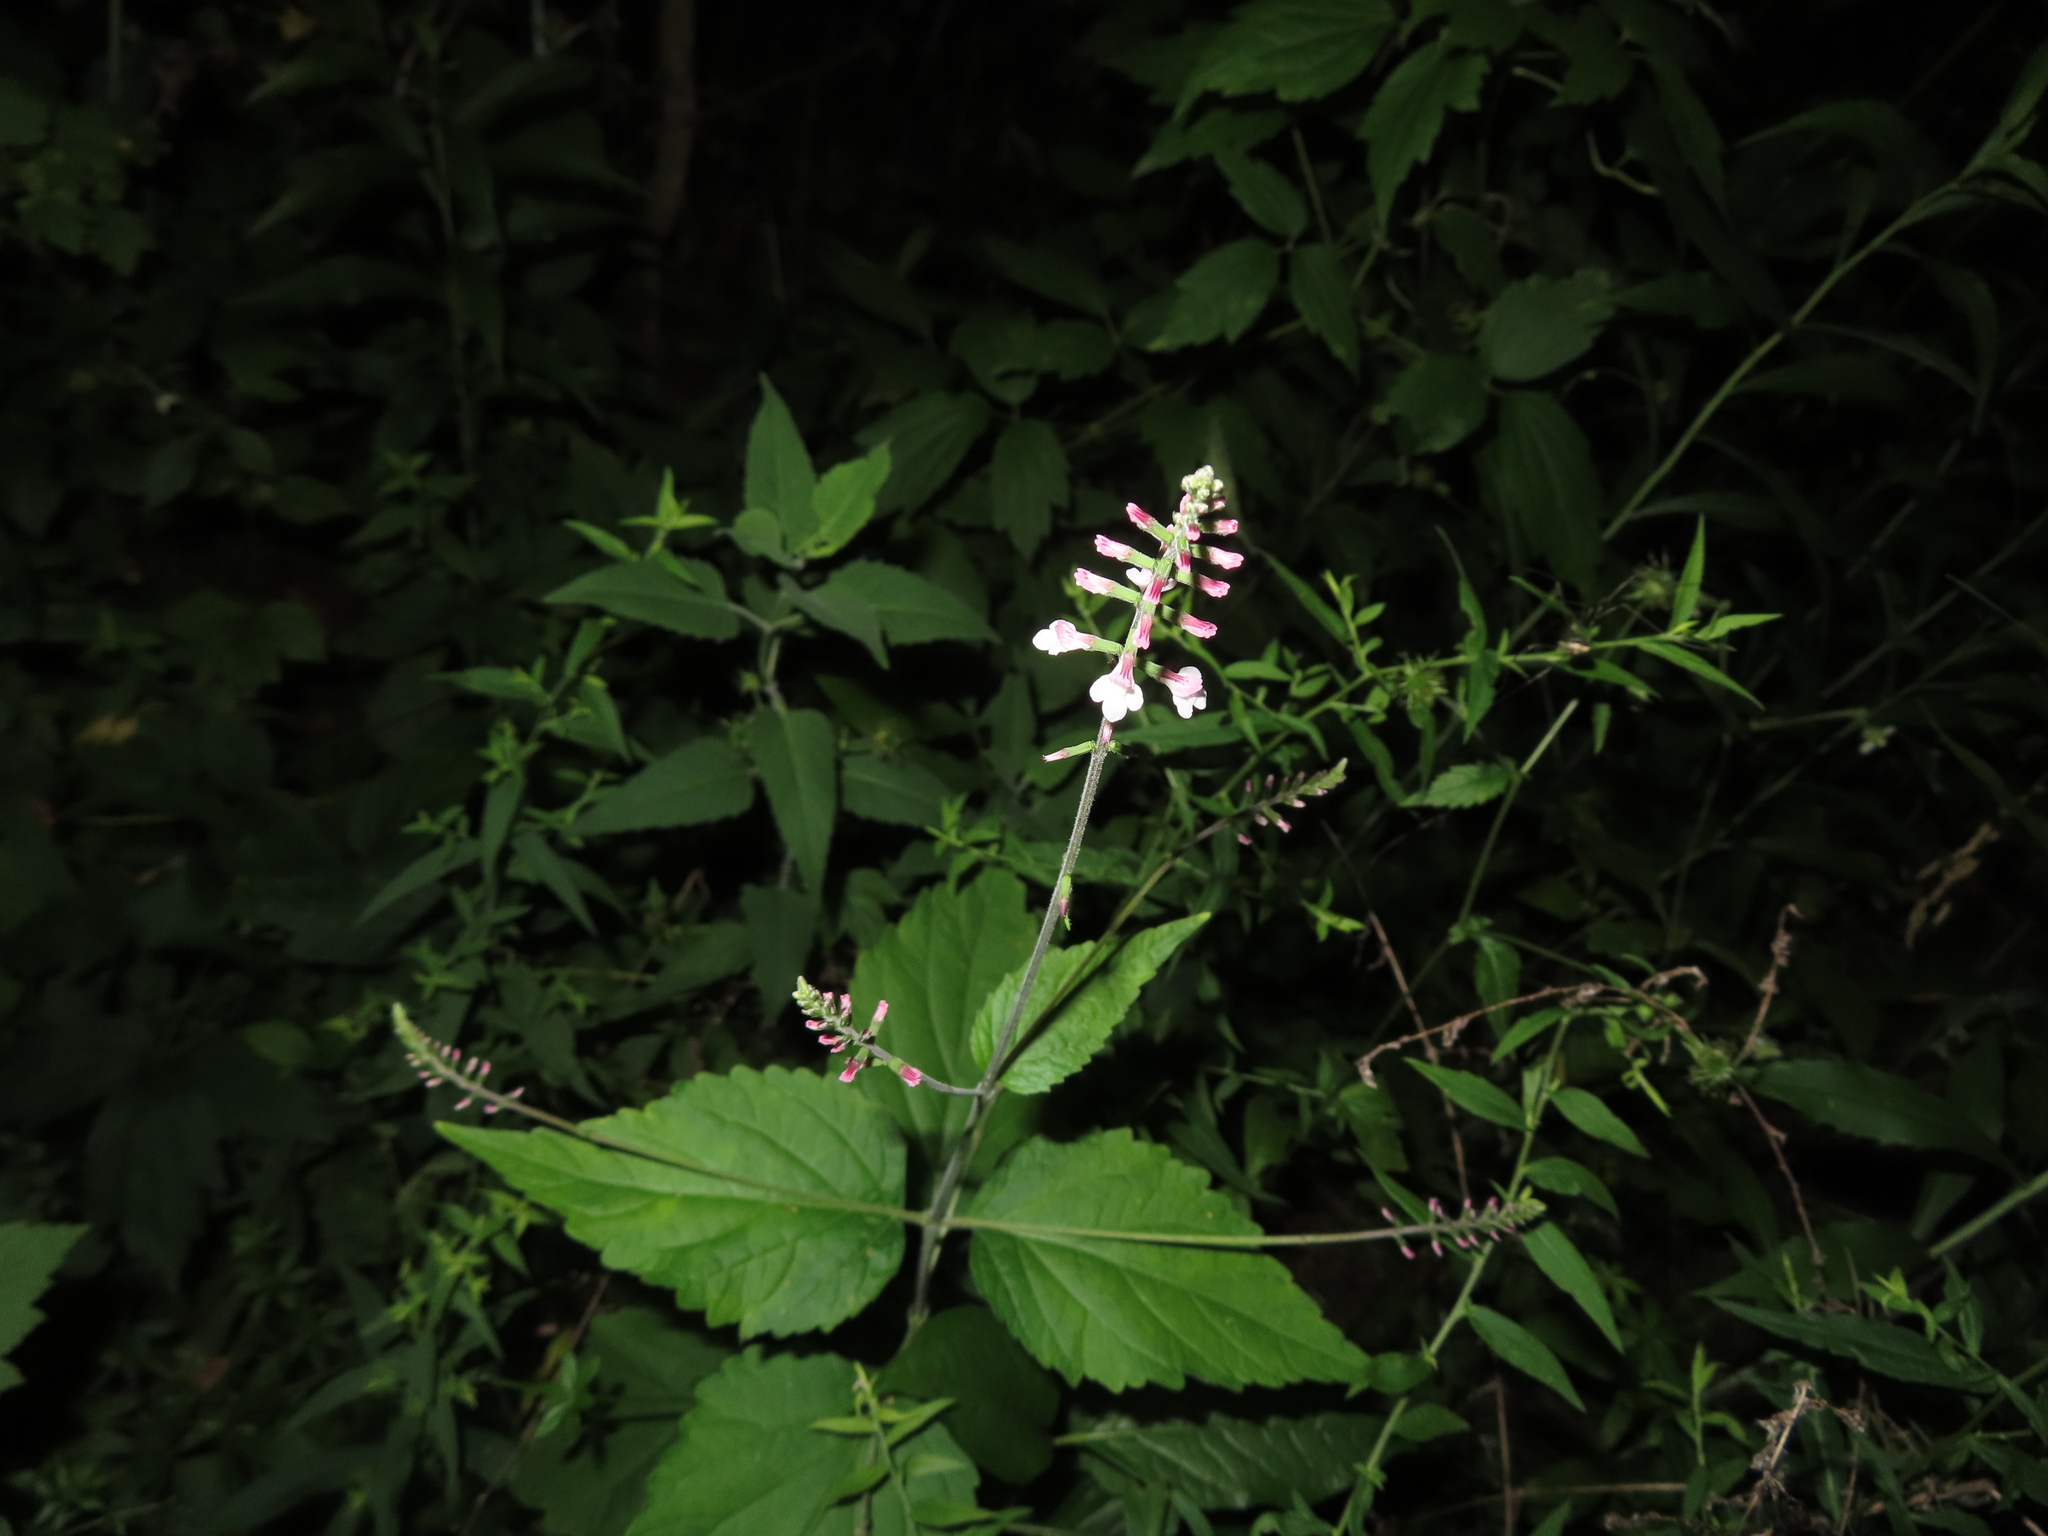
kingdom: Plantae
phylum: Tracheophyta
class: Magnoliopsida
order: Lamiales
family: Phrymaceae
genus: Phryma
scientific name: Phryma leptostachya
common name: American lopseed
